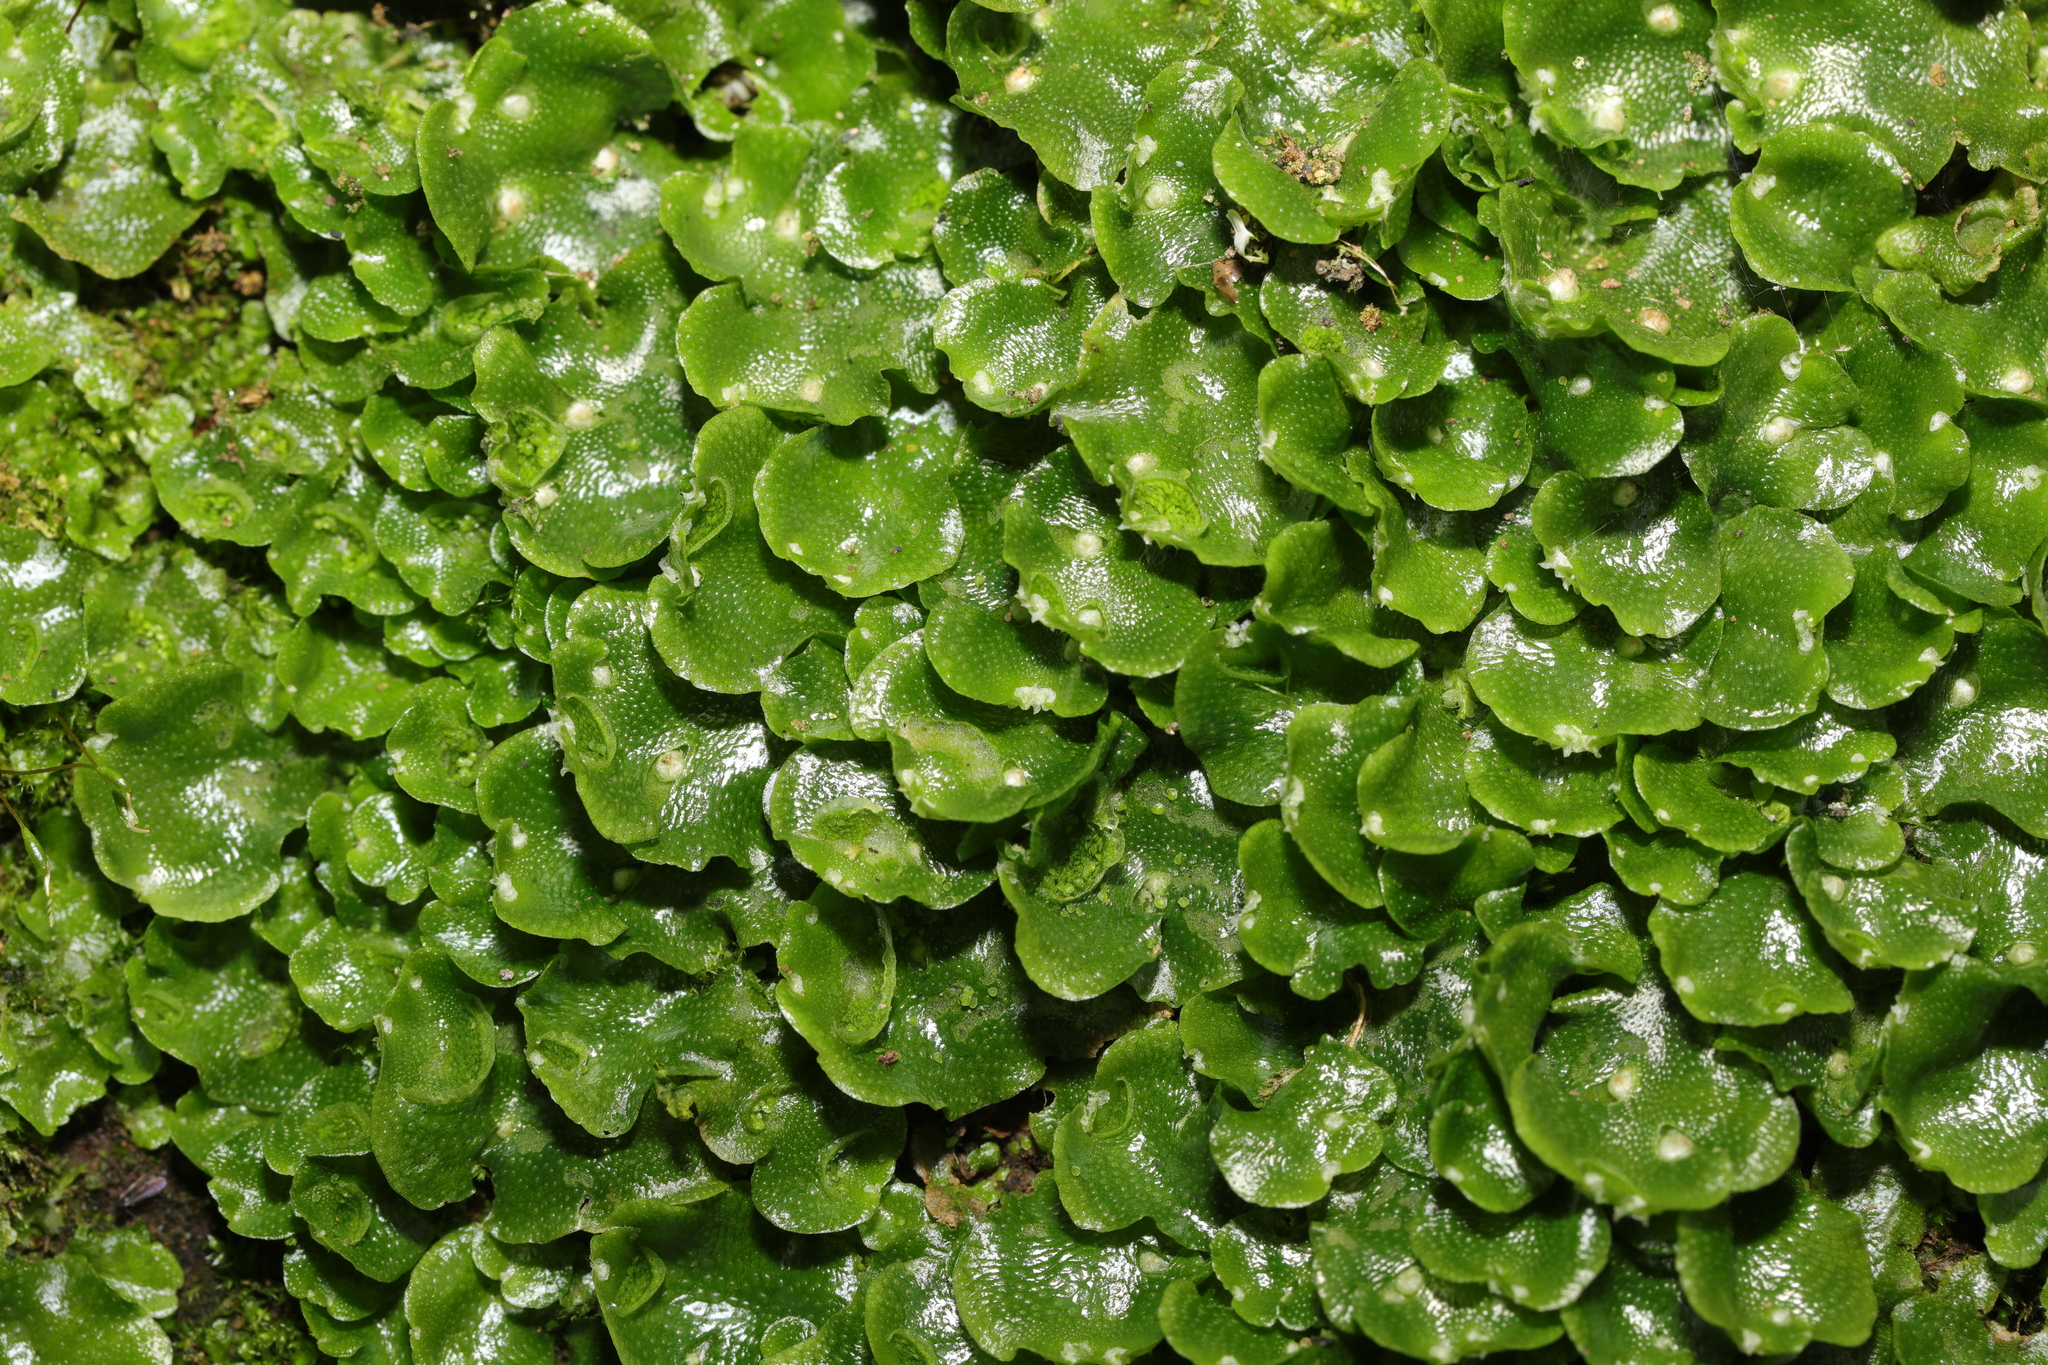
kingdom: Plantae
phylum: Marchantiophyta
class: Marchantiopsida
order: Lunulariales
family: Lunulariaceae
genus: Lunularia
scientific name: Lunularia cruciata
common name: Crescent-cup liverwort
